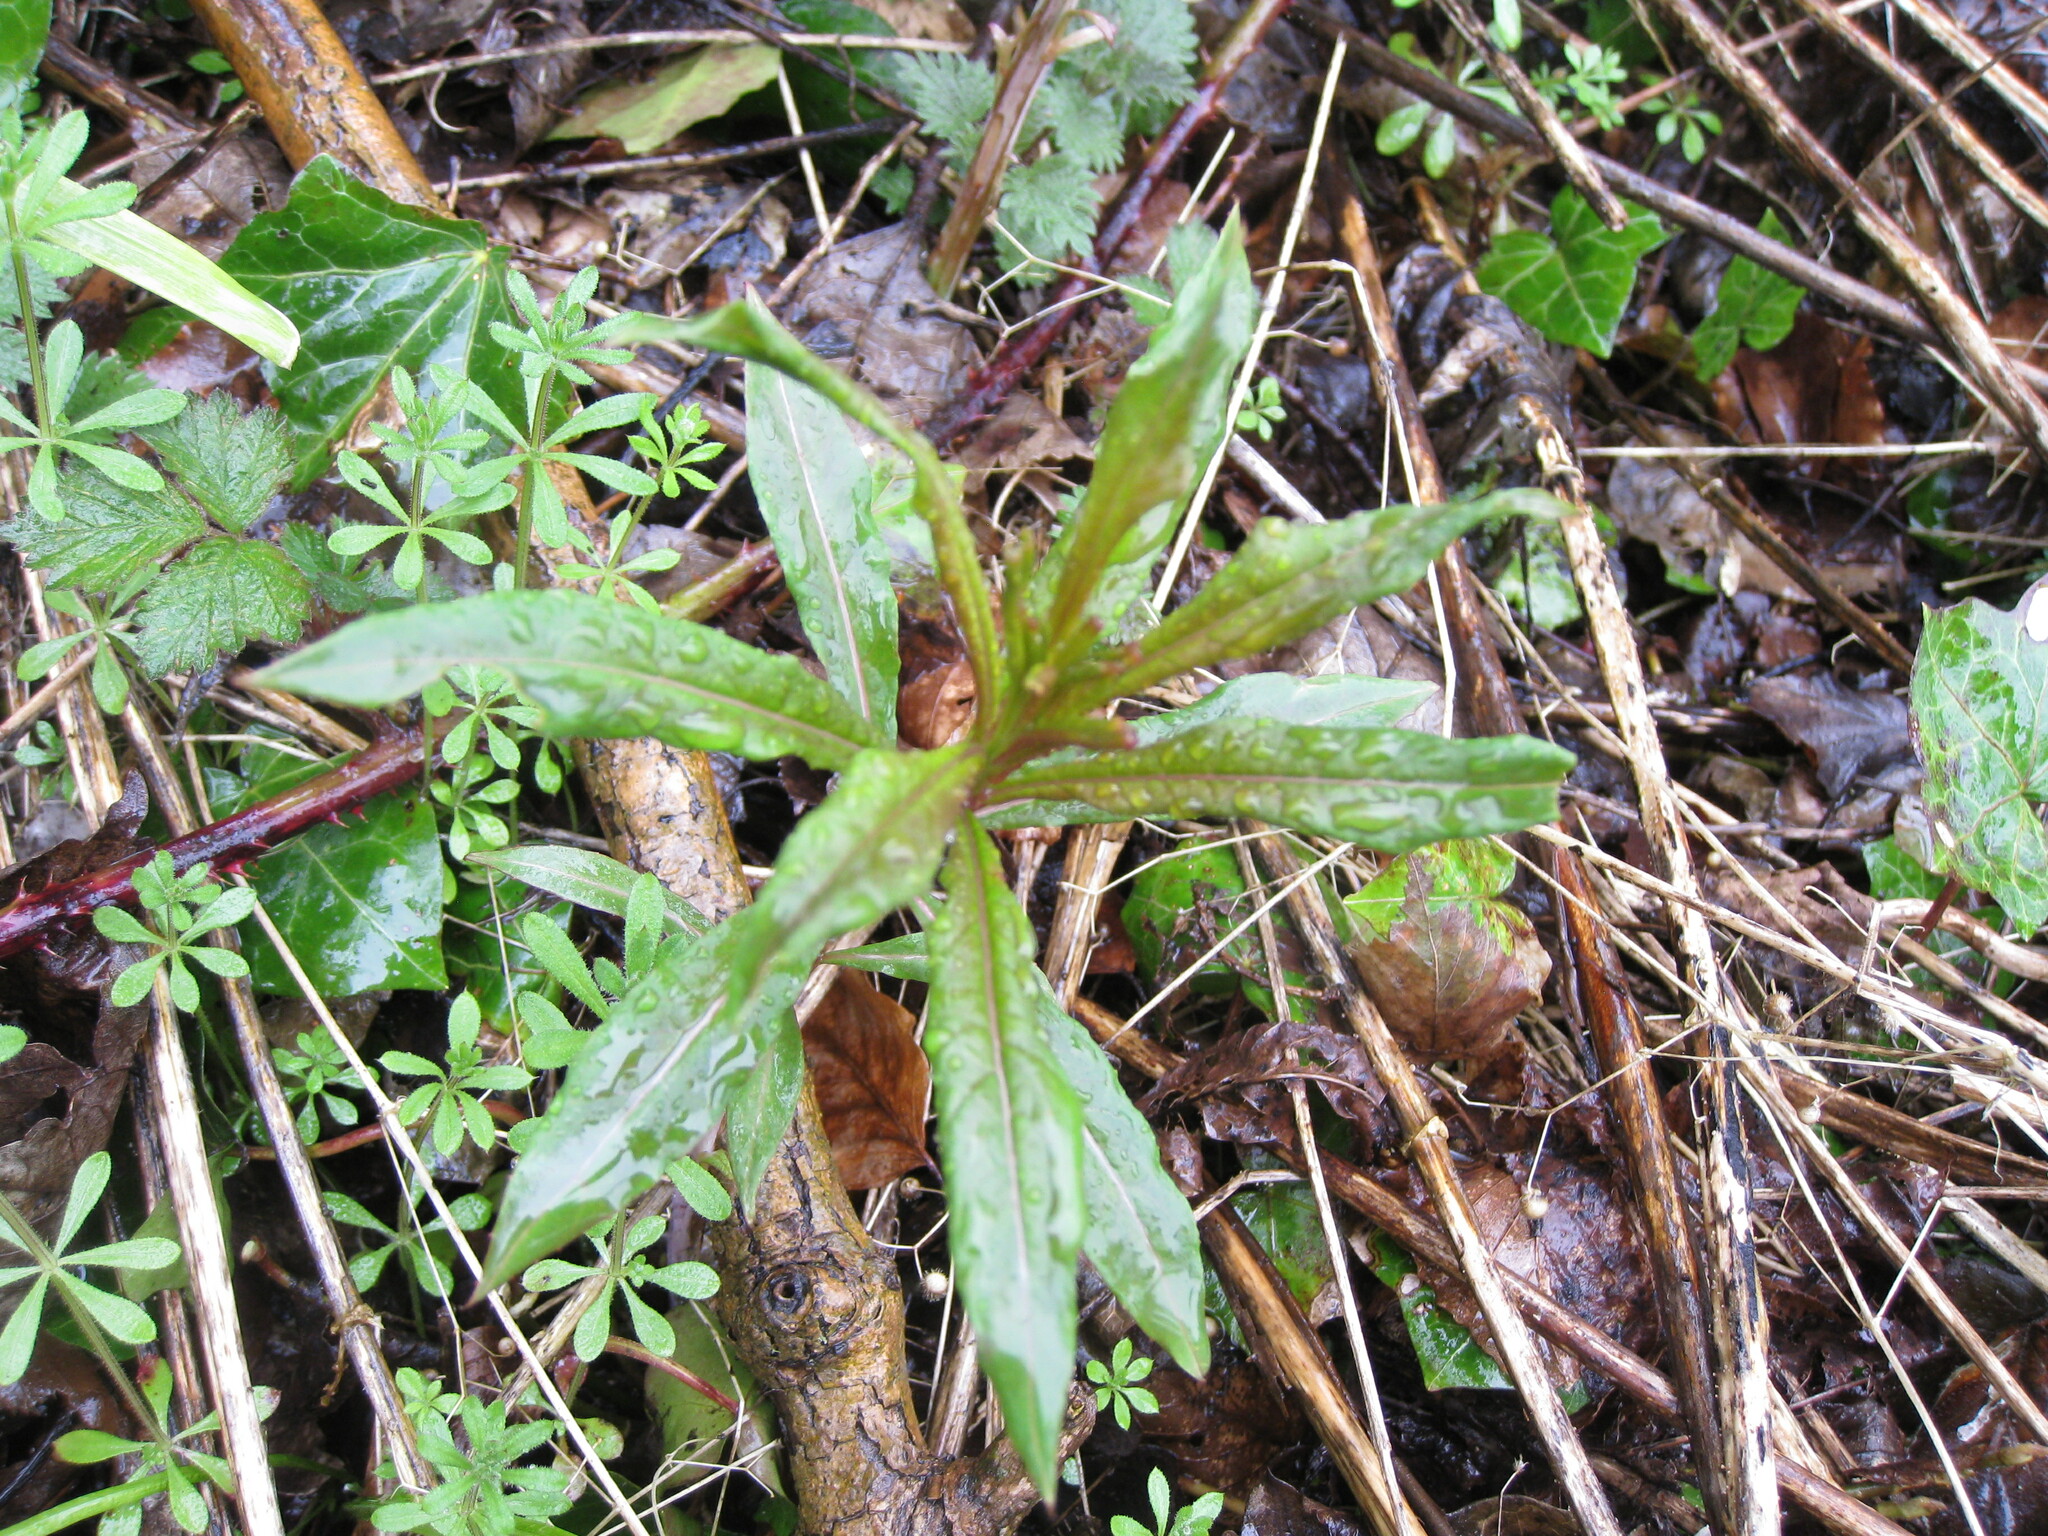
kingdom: Plantae
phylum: Tracheophyta
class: Magnoliopsida
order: Myrtales
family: Onagraceae
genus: Chamaenerion
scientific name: Chamaenerion angustifolium
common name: Fireweed
